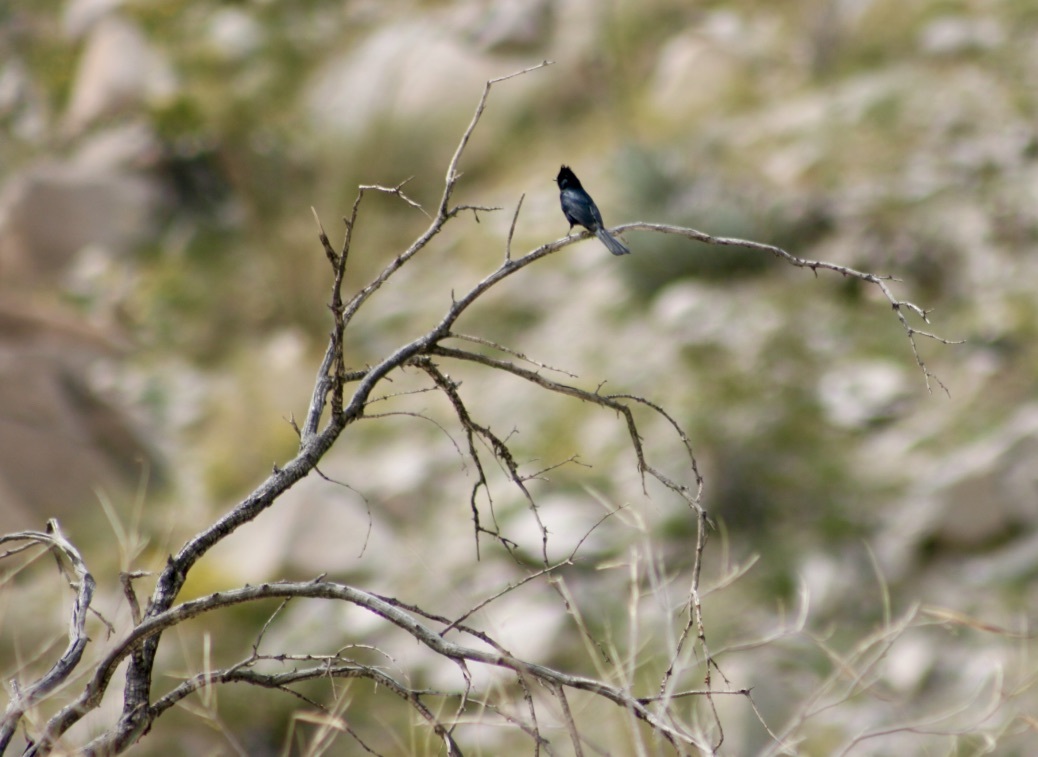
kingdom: Animalia
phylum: Chordata
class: Aves
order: Passeriformes
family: Ptilogonatidae
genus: Phainopepla
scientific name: Phainopepla nitens
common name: Phainopepla
